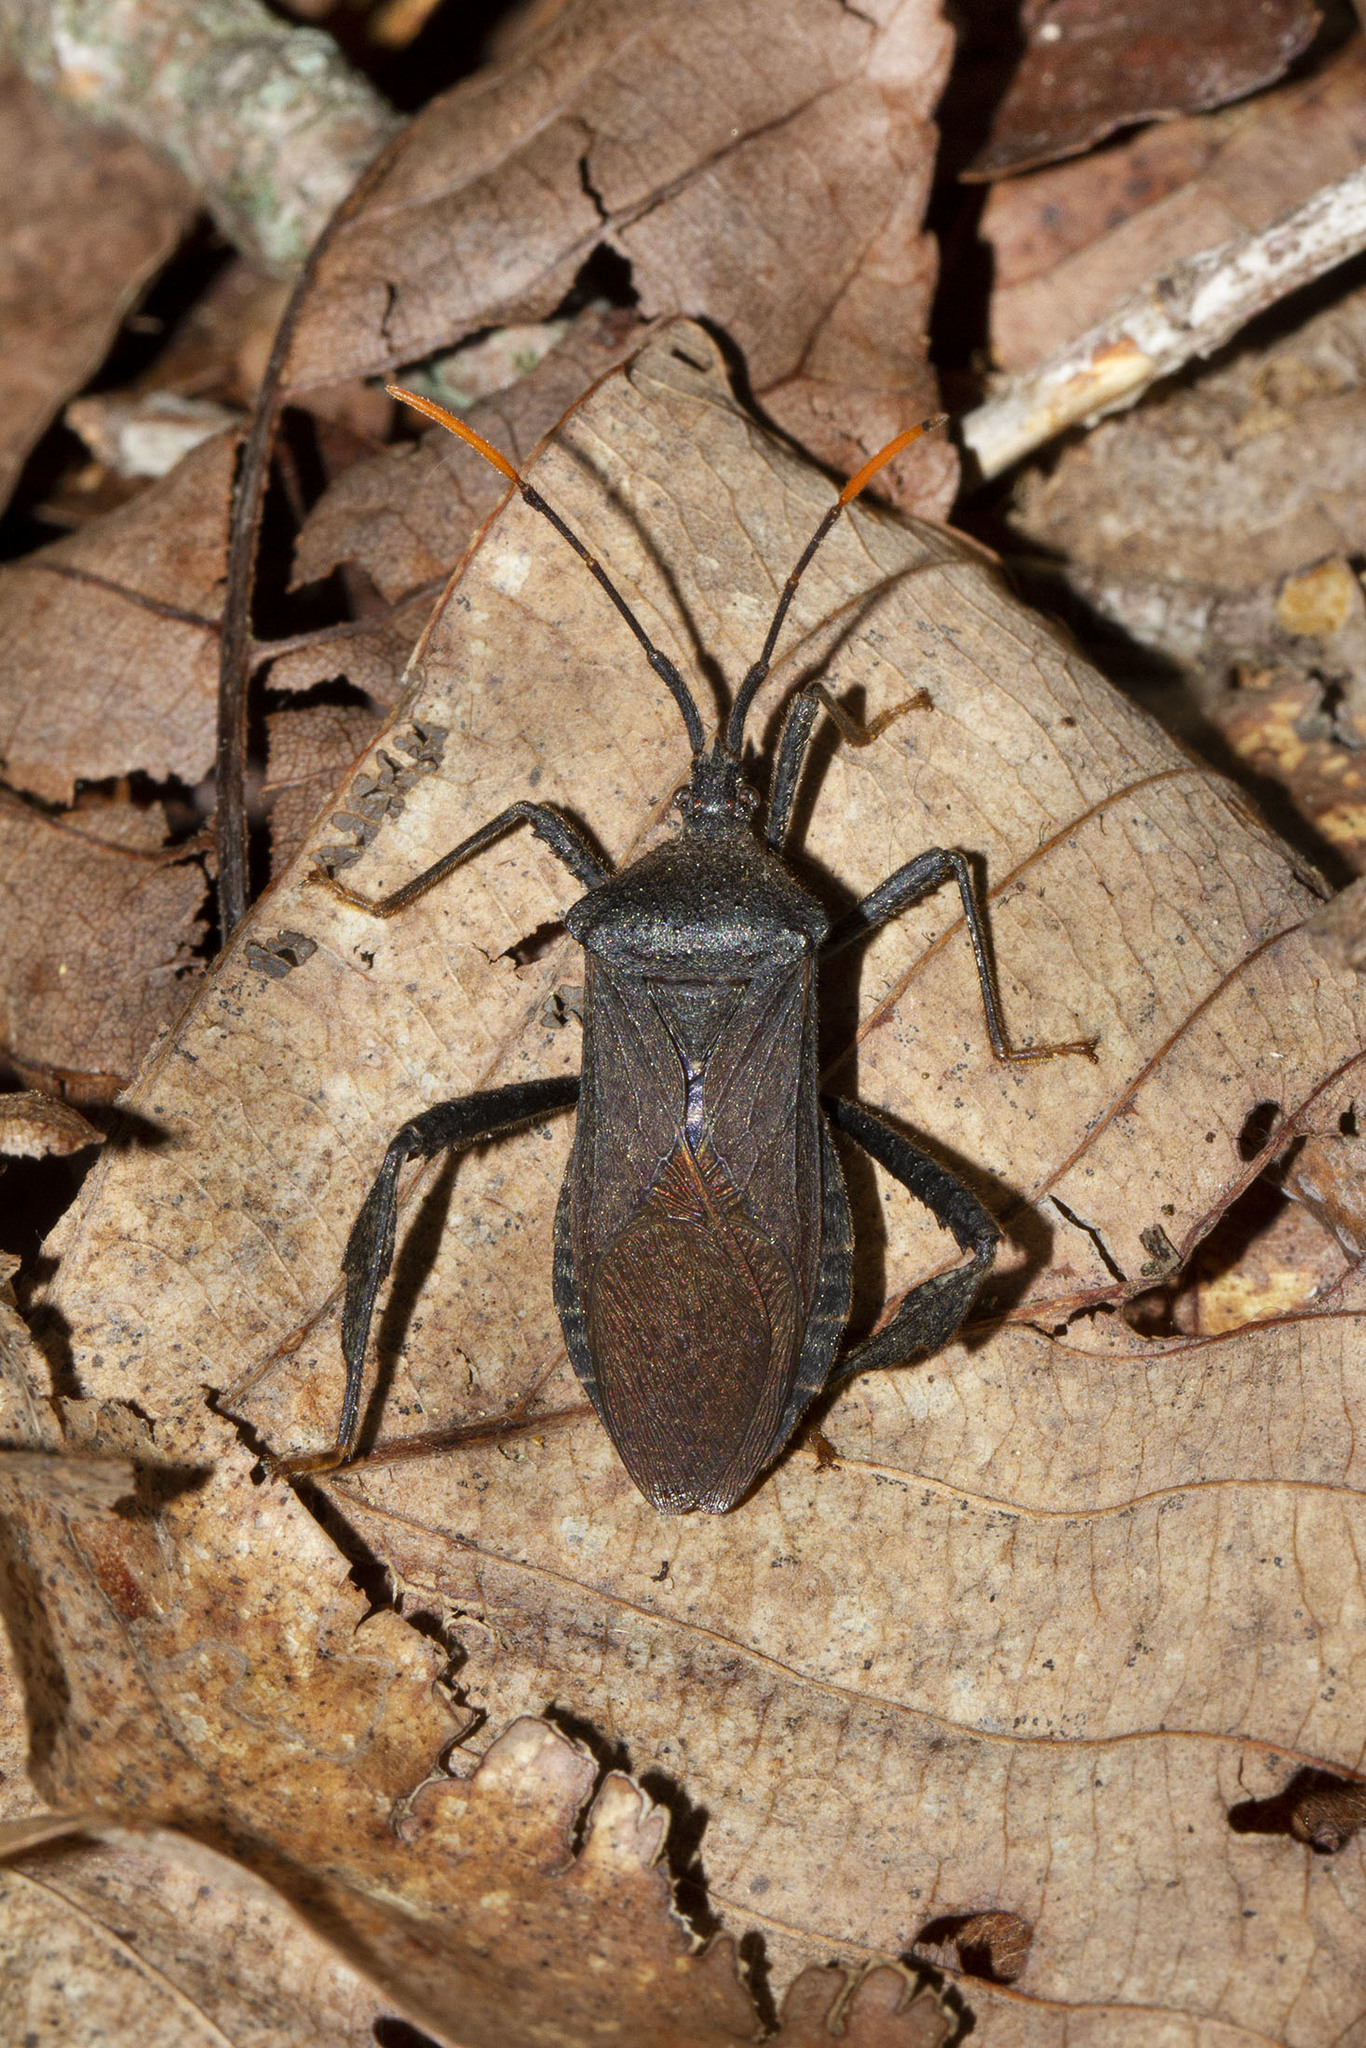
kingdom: Animalia
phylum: Arthropoda
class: Insecta
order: Hemiptera
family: Coreidae
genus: Acanthocephala
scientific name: Acanthocephala terminalis
